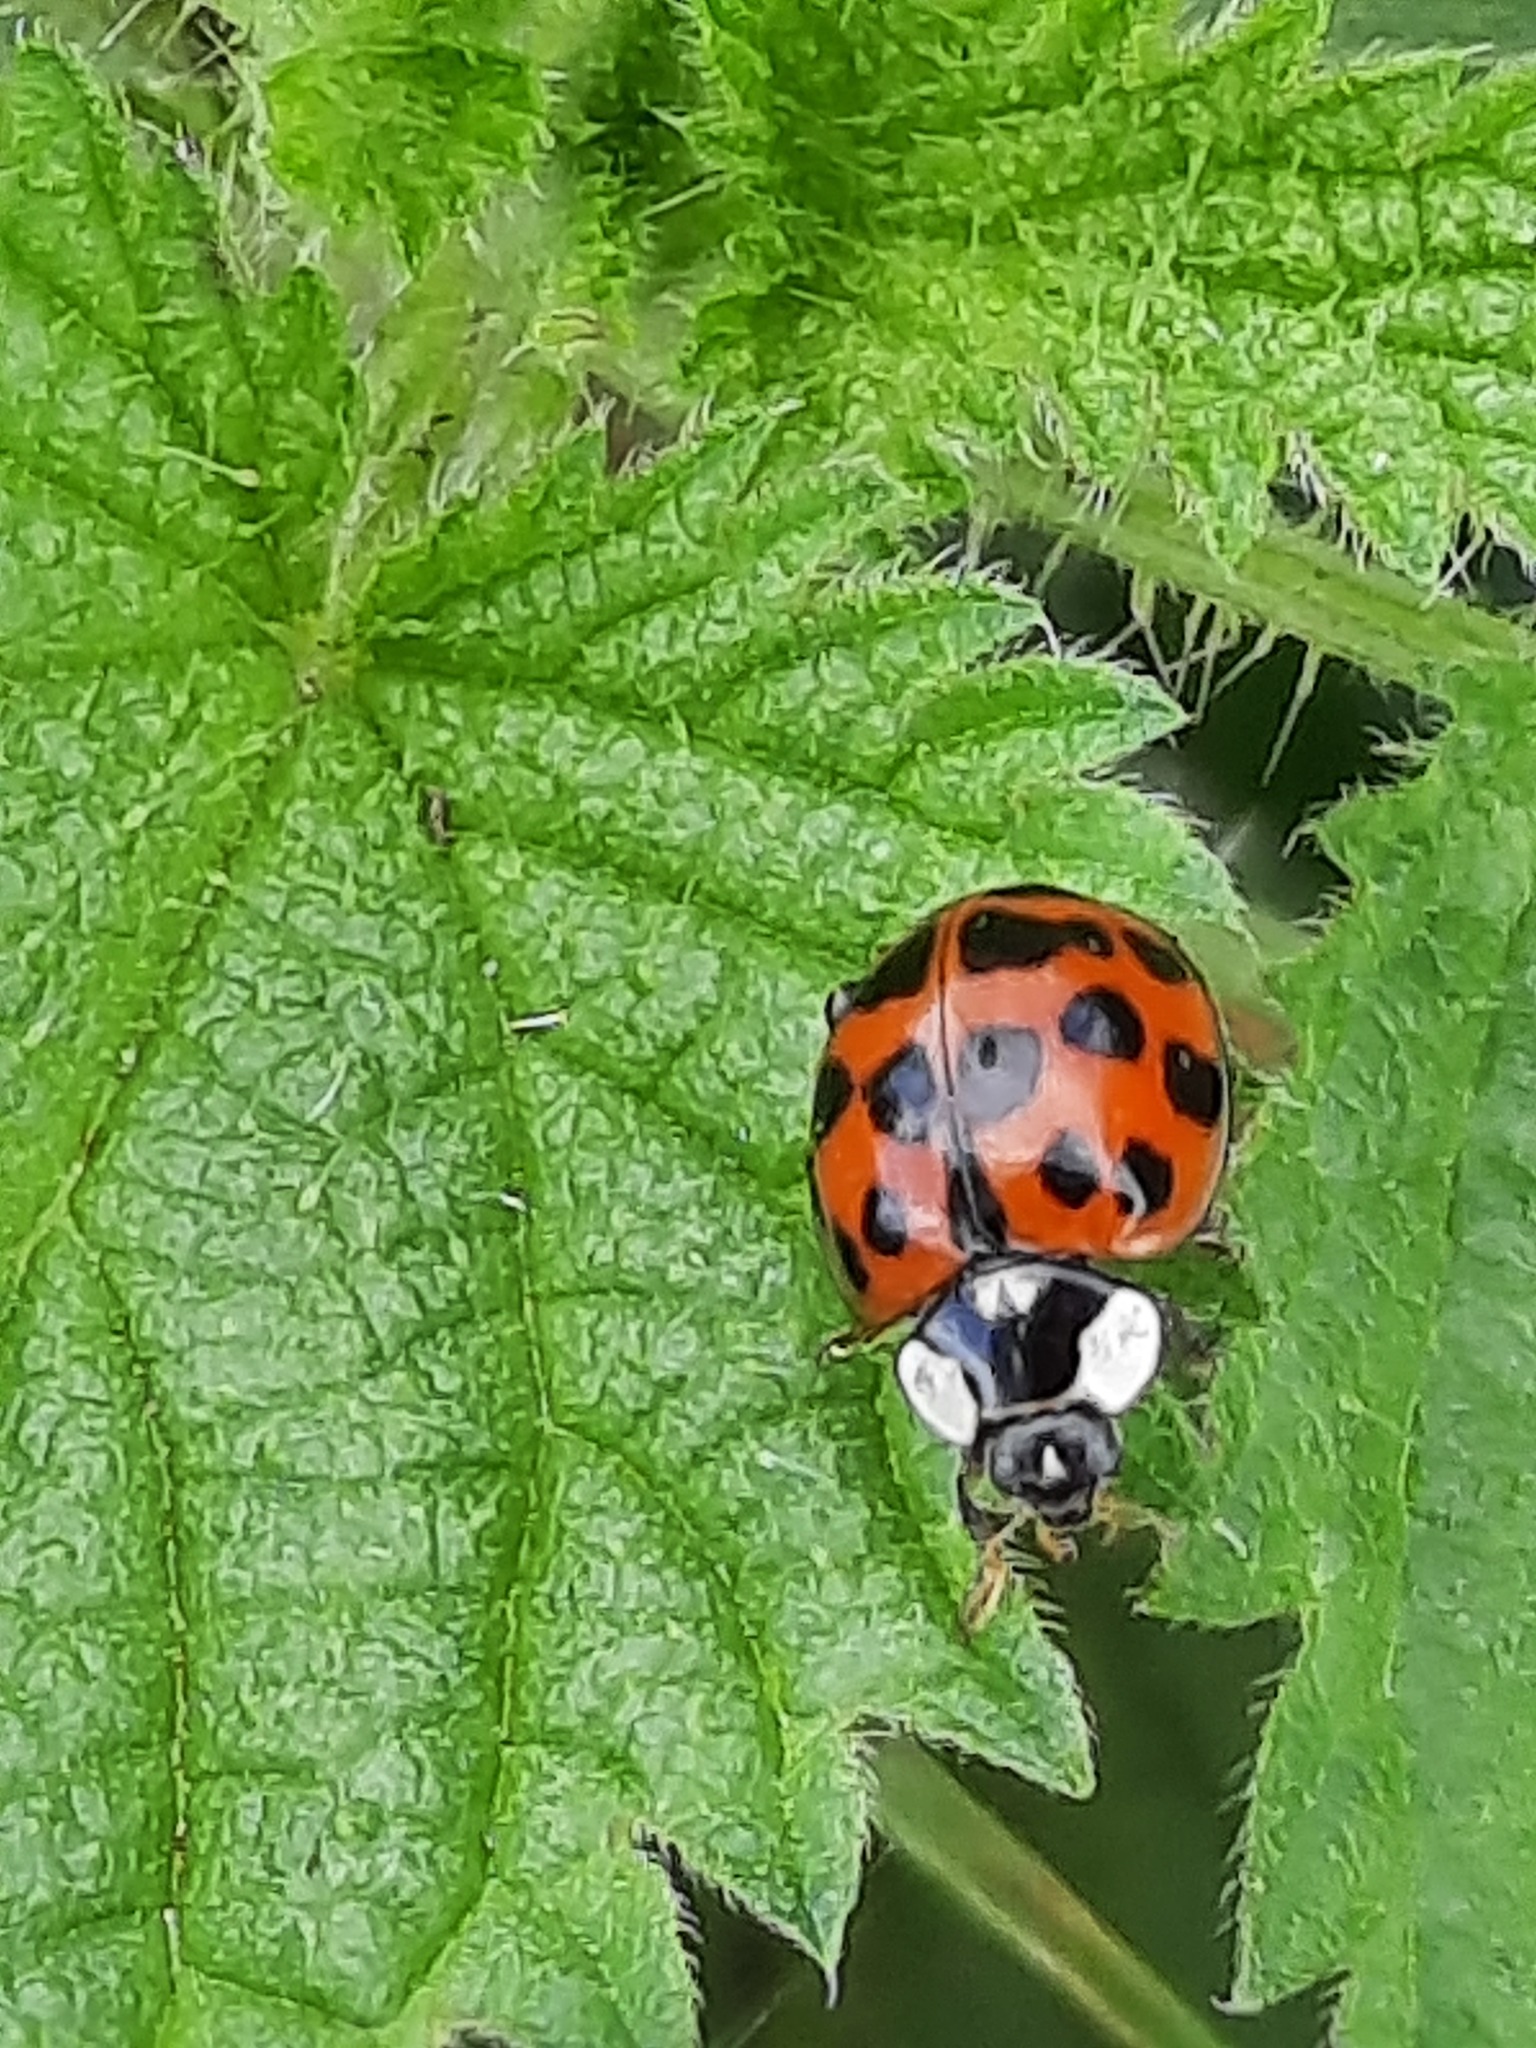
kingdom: Animalia
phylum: Arthropoda
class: Insecta
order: Coleoptera
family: Coccinellidae
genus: Harmonia
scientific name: Harmonia axyridis
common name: Harlequin ladybird
